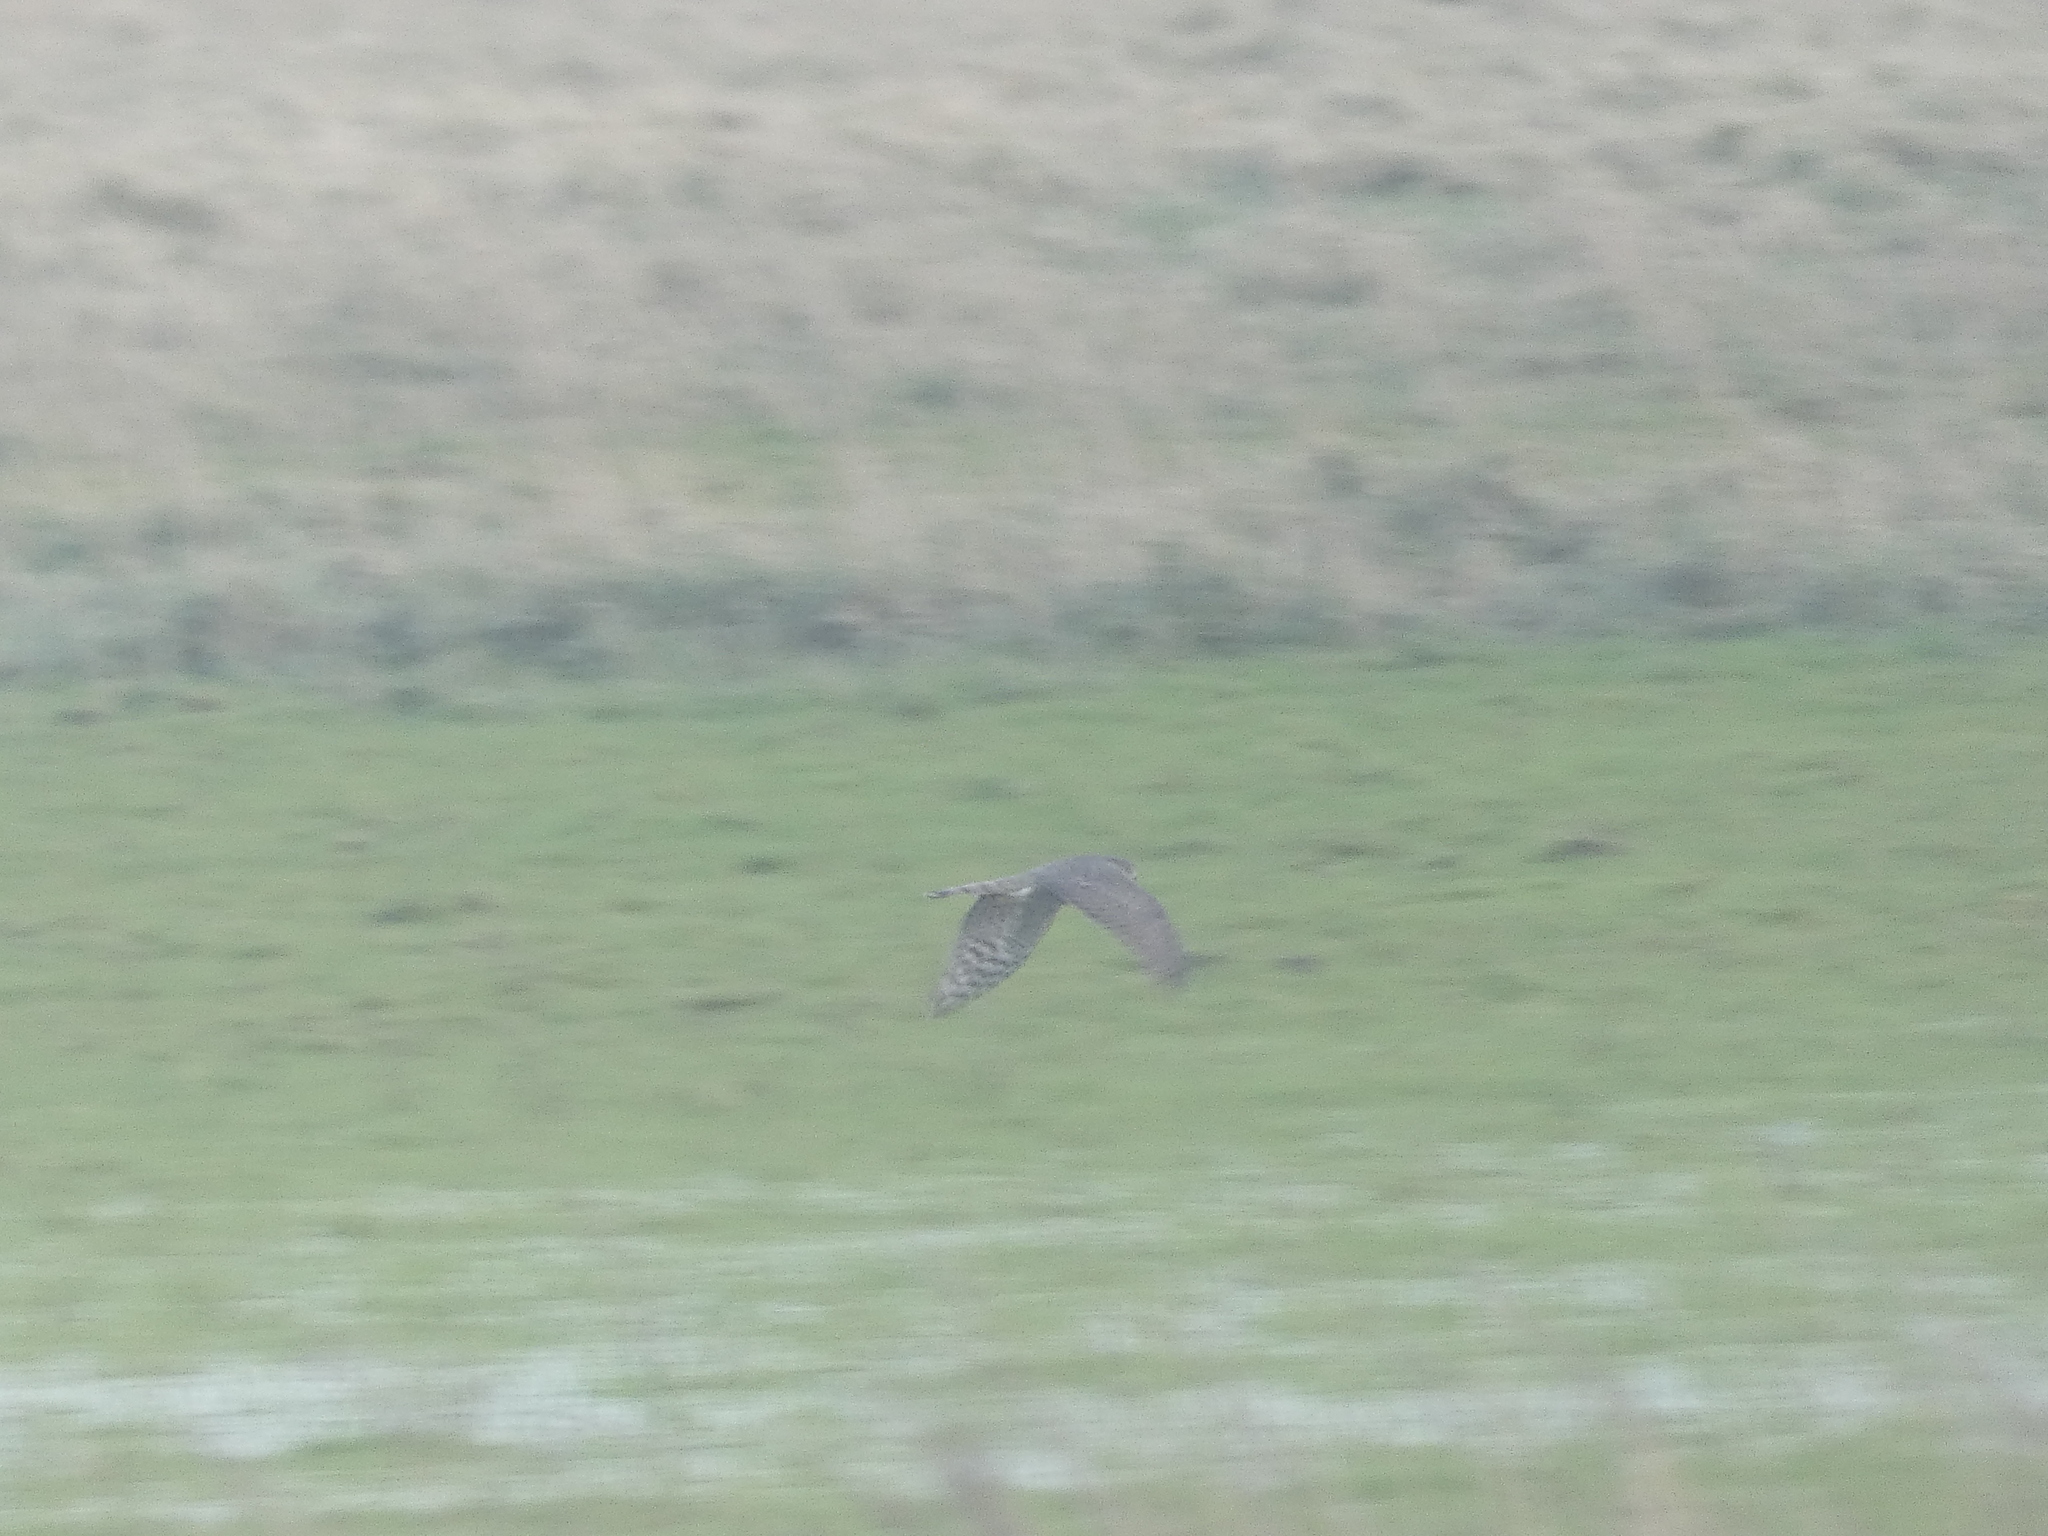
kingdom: Animalia
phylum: Chordata
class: Aves
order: Accipitriformes
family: Accipitridae
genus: Accipiter
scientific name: Accipiter nisus
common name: Eurasian sparrowhawk
